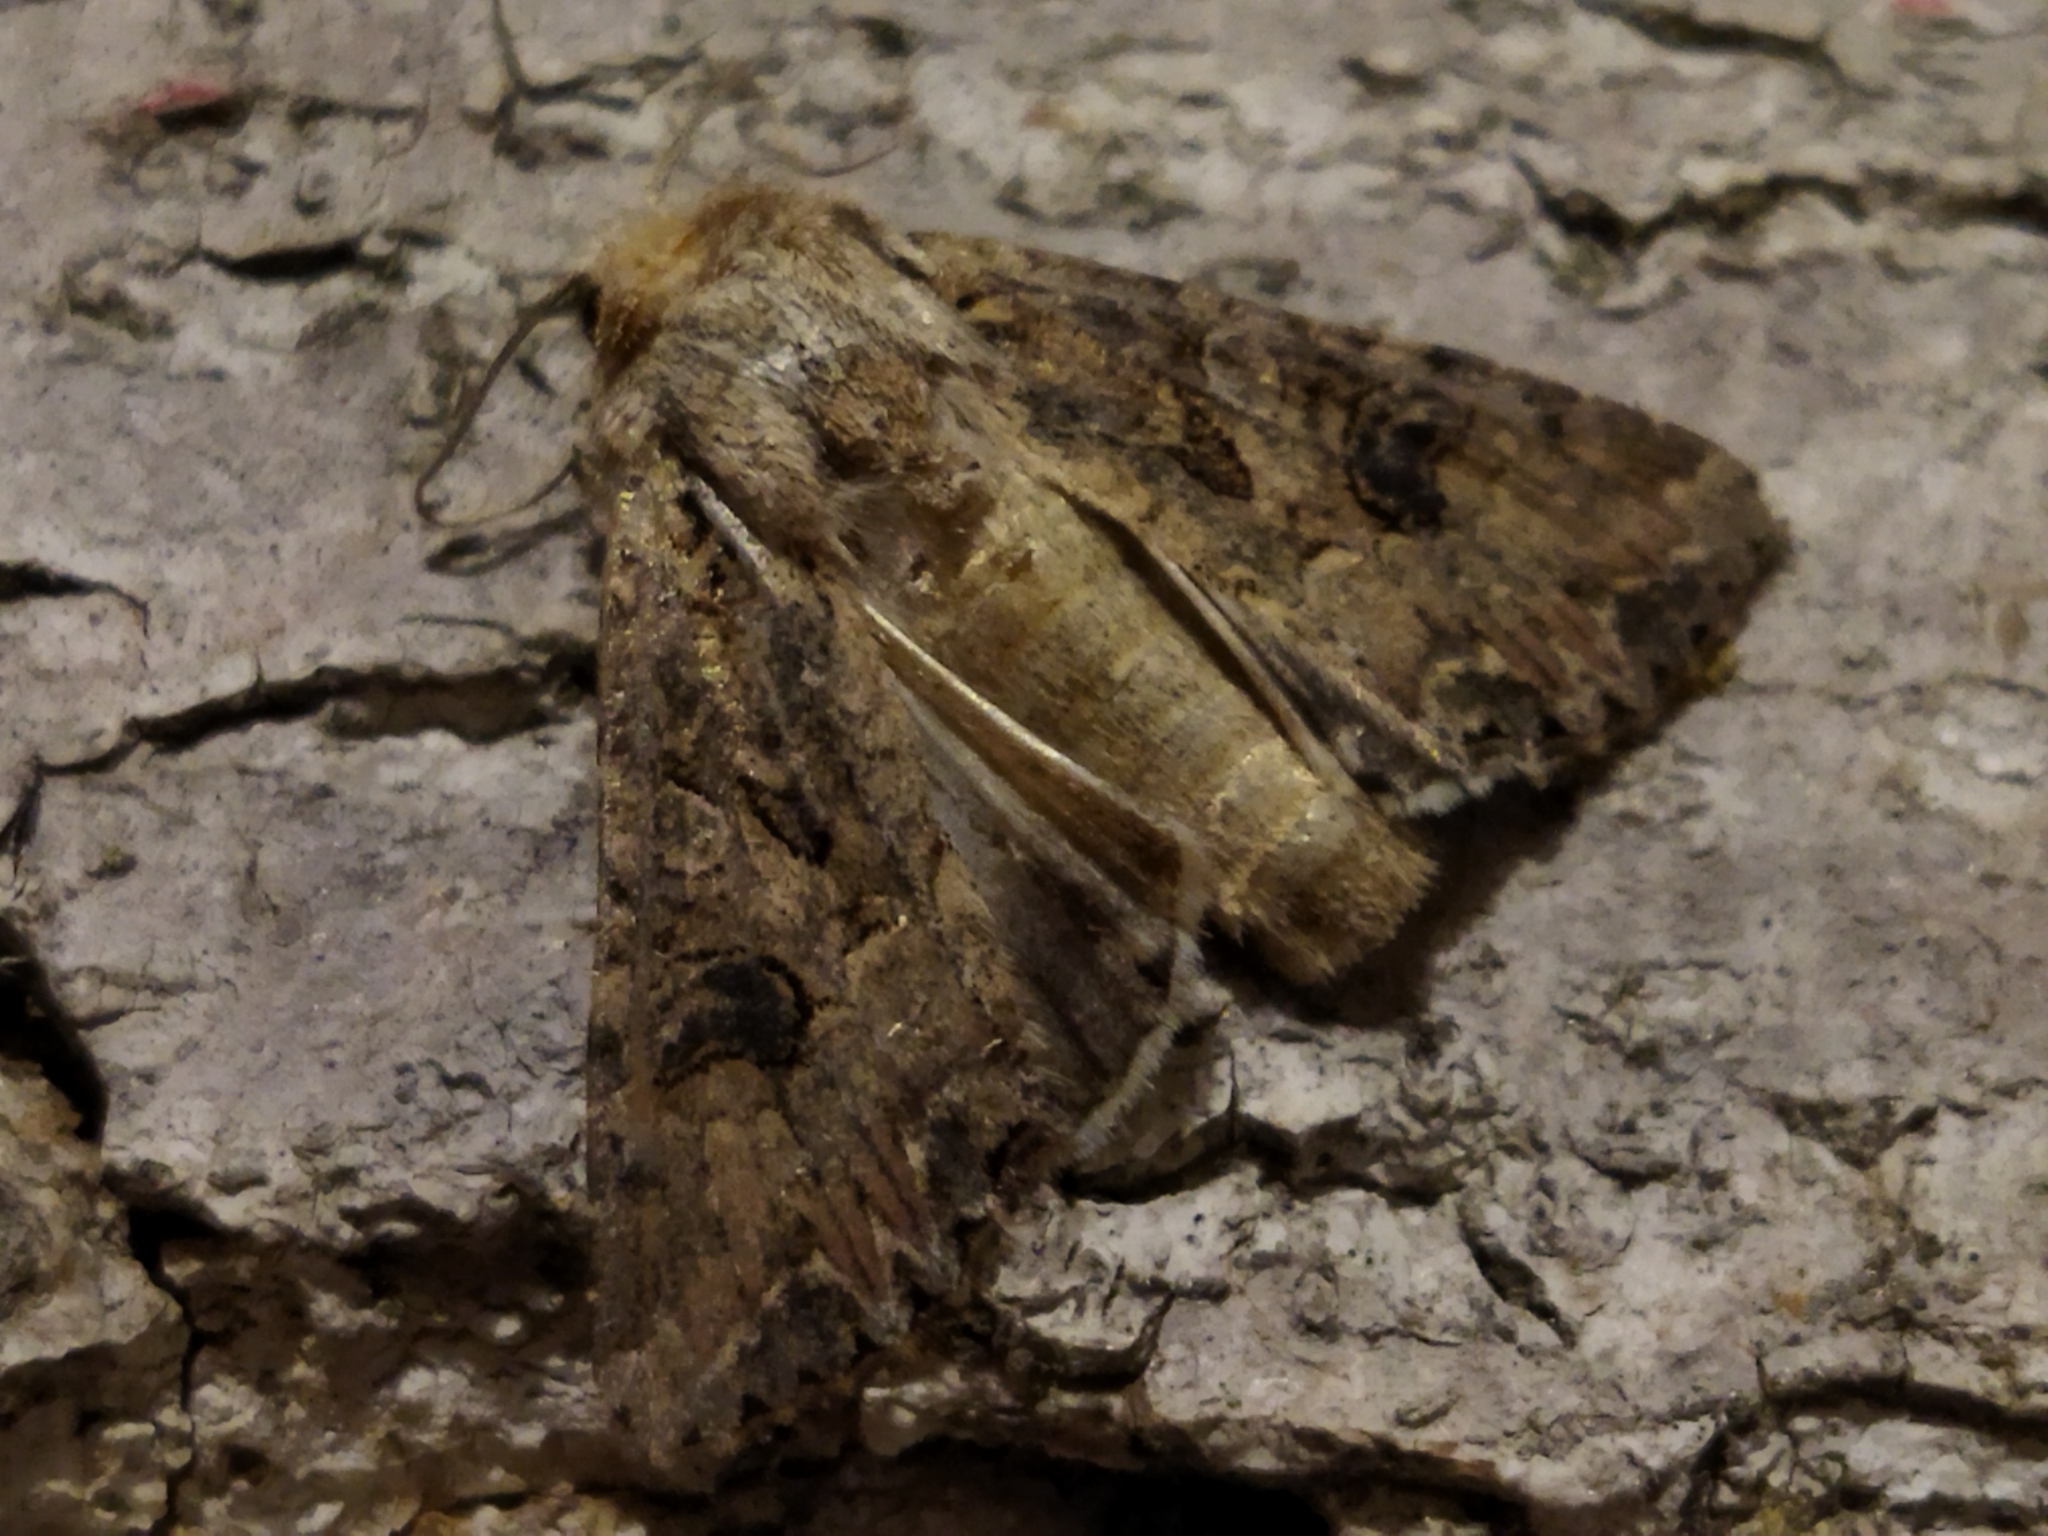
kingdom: Animalia
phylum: Arthropoda
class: Insecta
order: Lepidoptera
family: Noctuidae
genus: Anarta
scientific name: Anarta trifolii
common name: Clover cutworm moth
